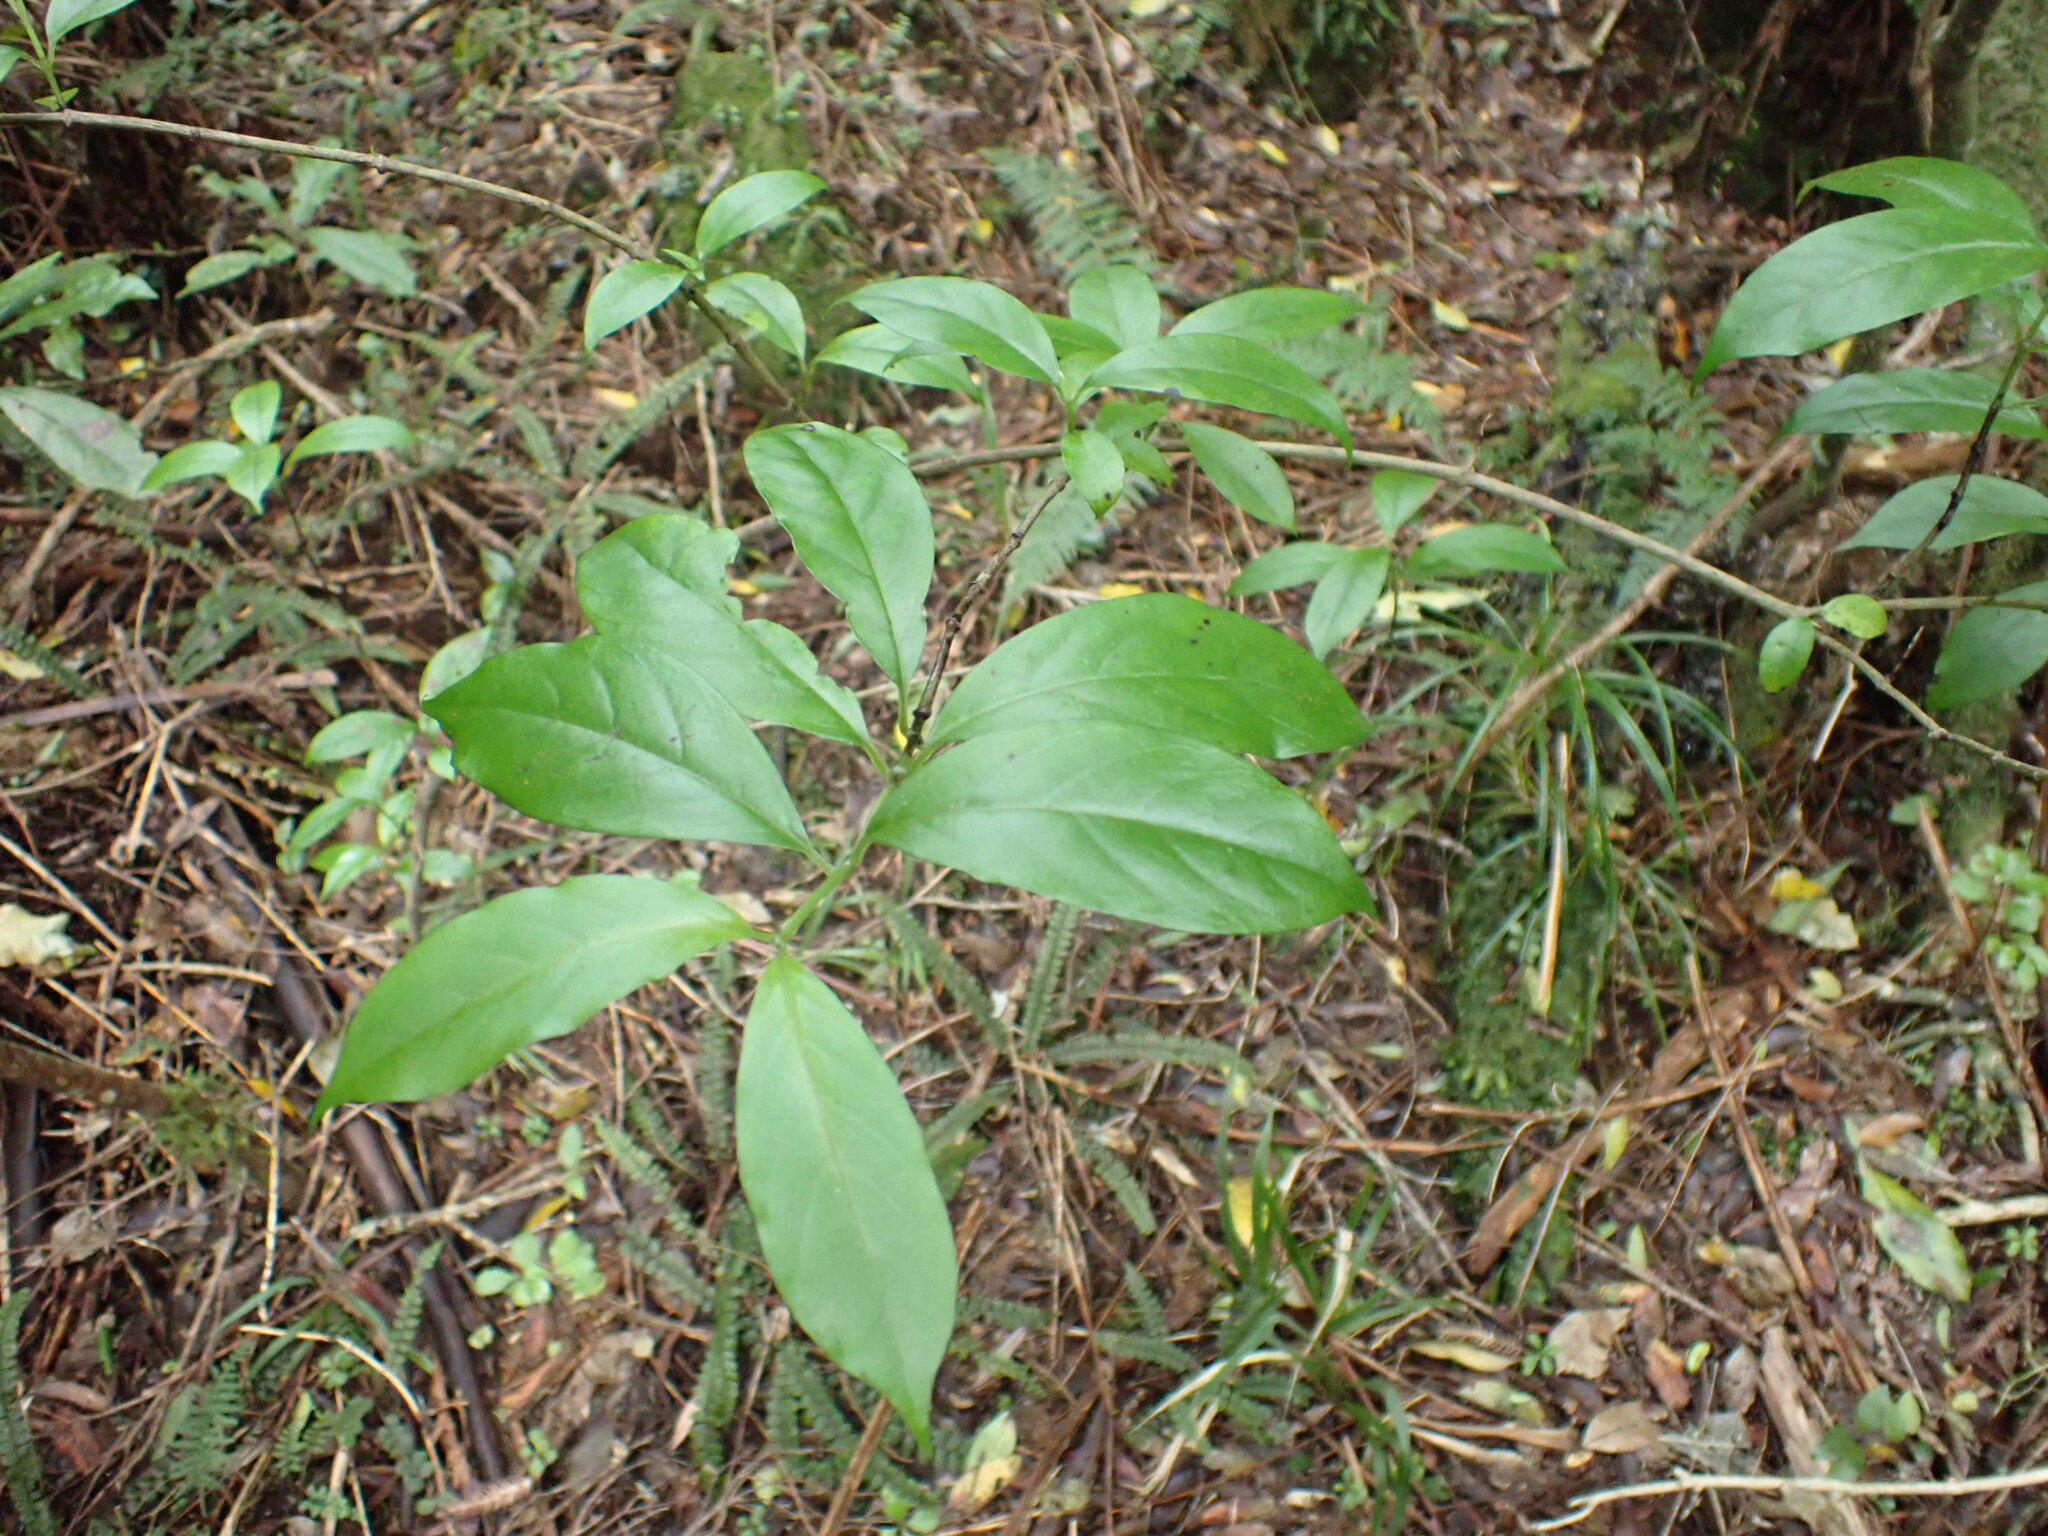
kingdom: Plantae
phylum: Tracheophyta
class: Magnoliopsida
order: Gentianales
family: Loganiaceae
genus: Geniostoma
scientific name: Geniostoma ligustrifolium
